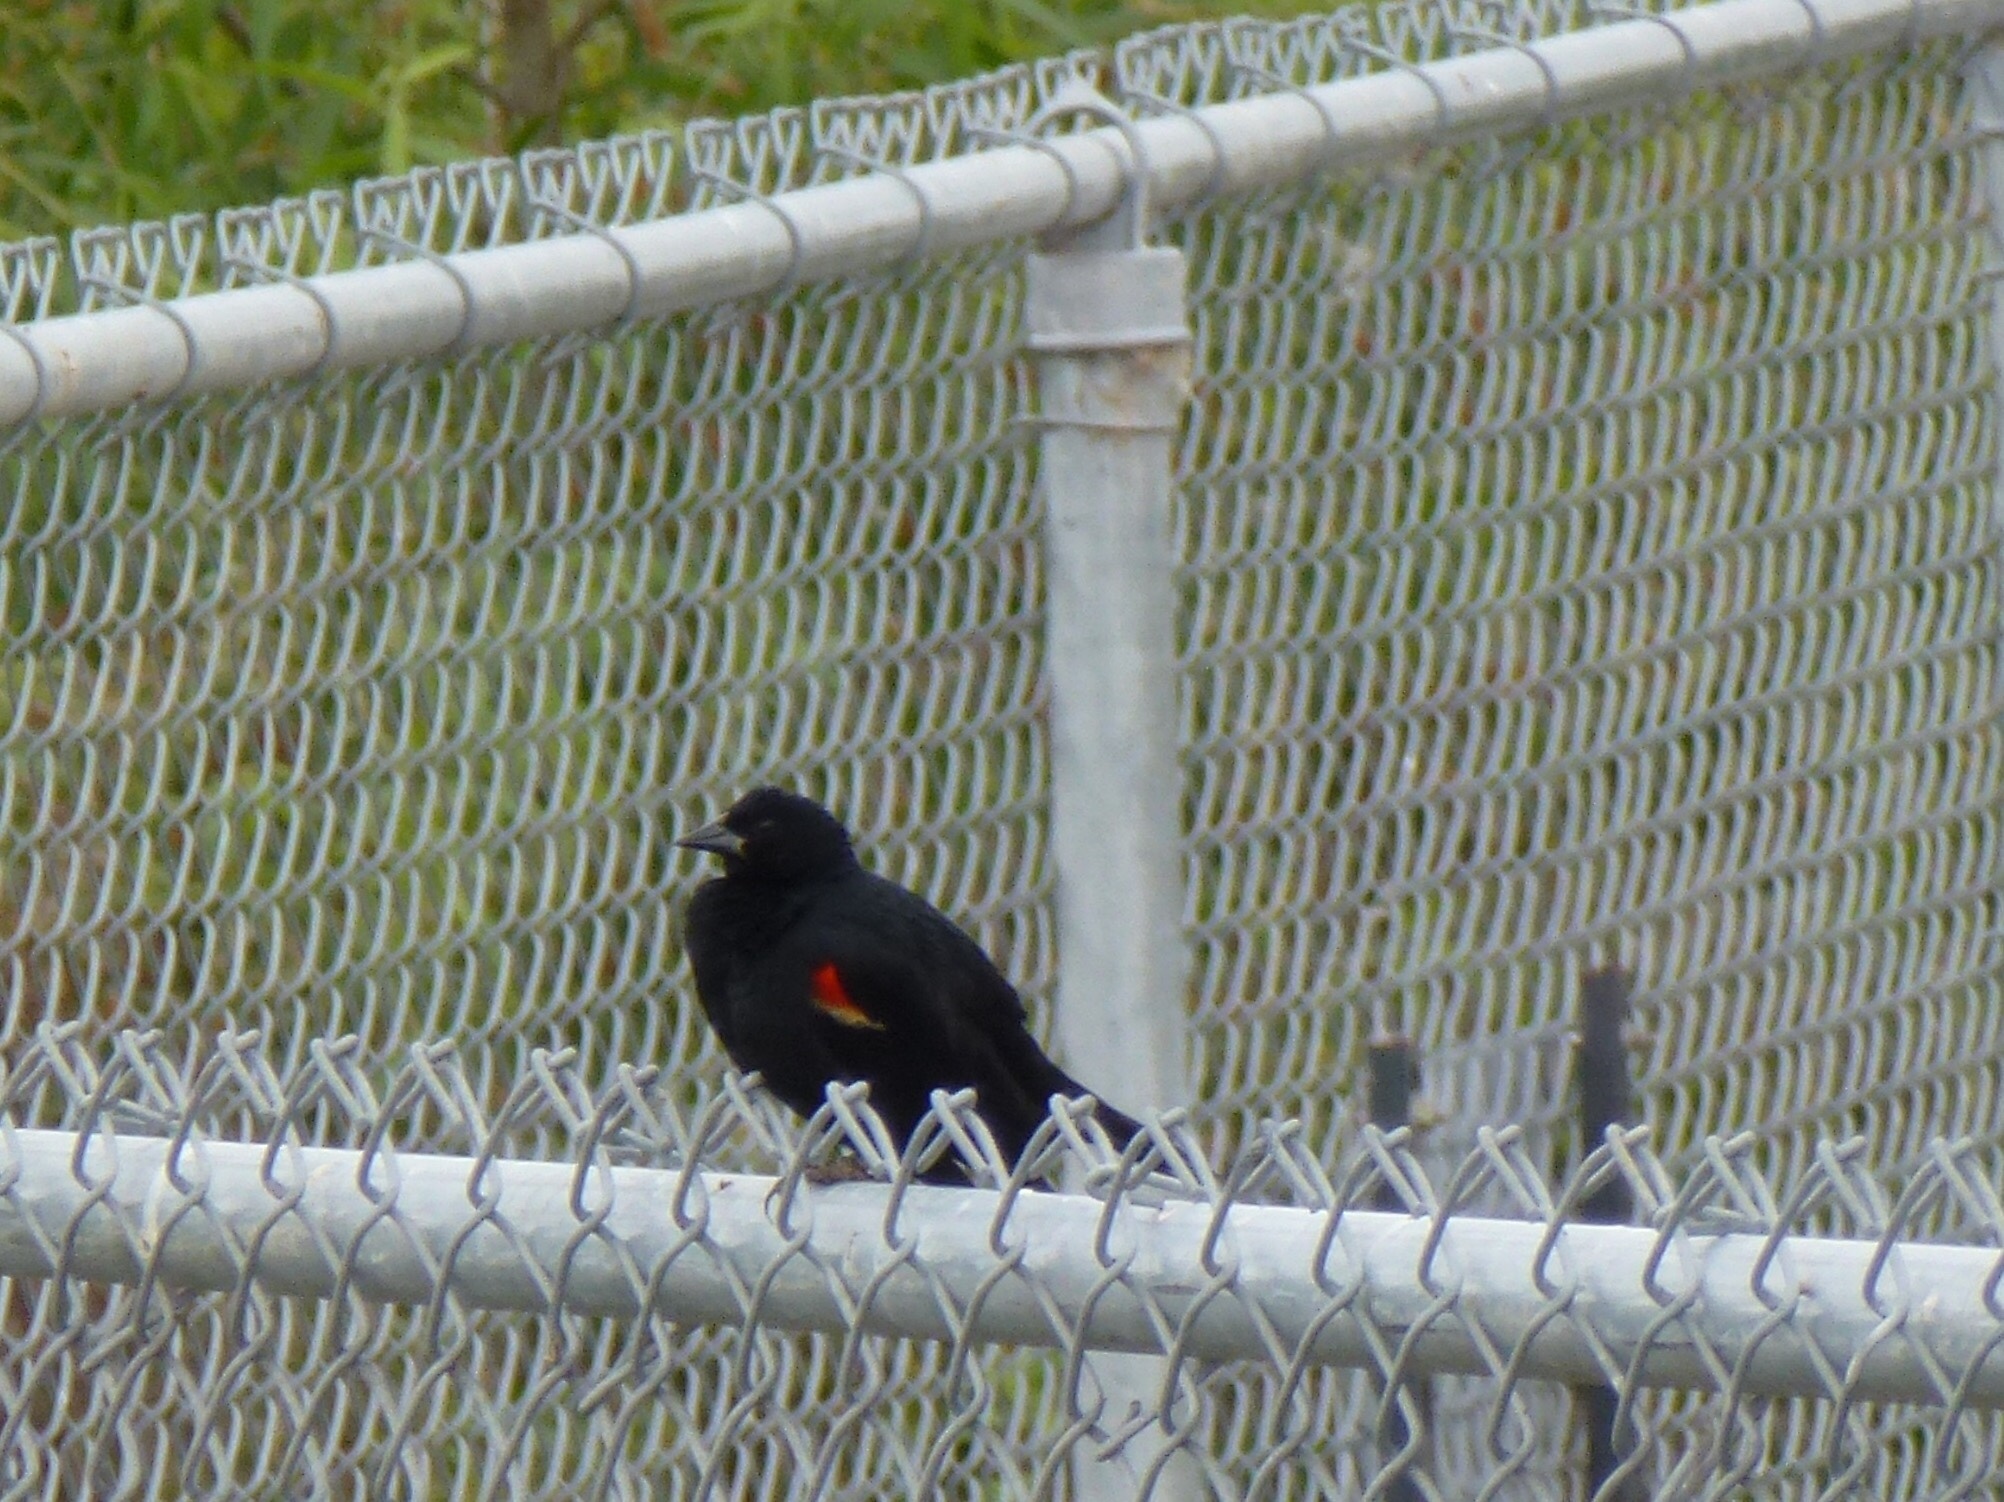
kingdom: Animalia
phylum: Chordata
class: Aves
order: Passeriformes
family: Icteridae
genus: Agelaius
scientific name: Agelaius phoeniceus
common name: Red-winged blackbird
